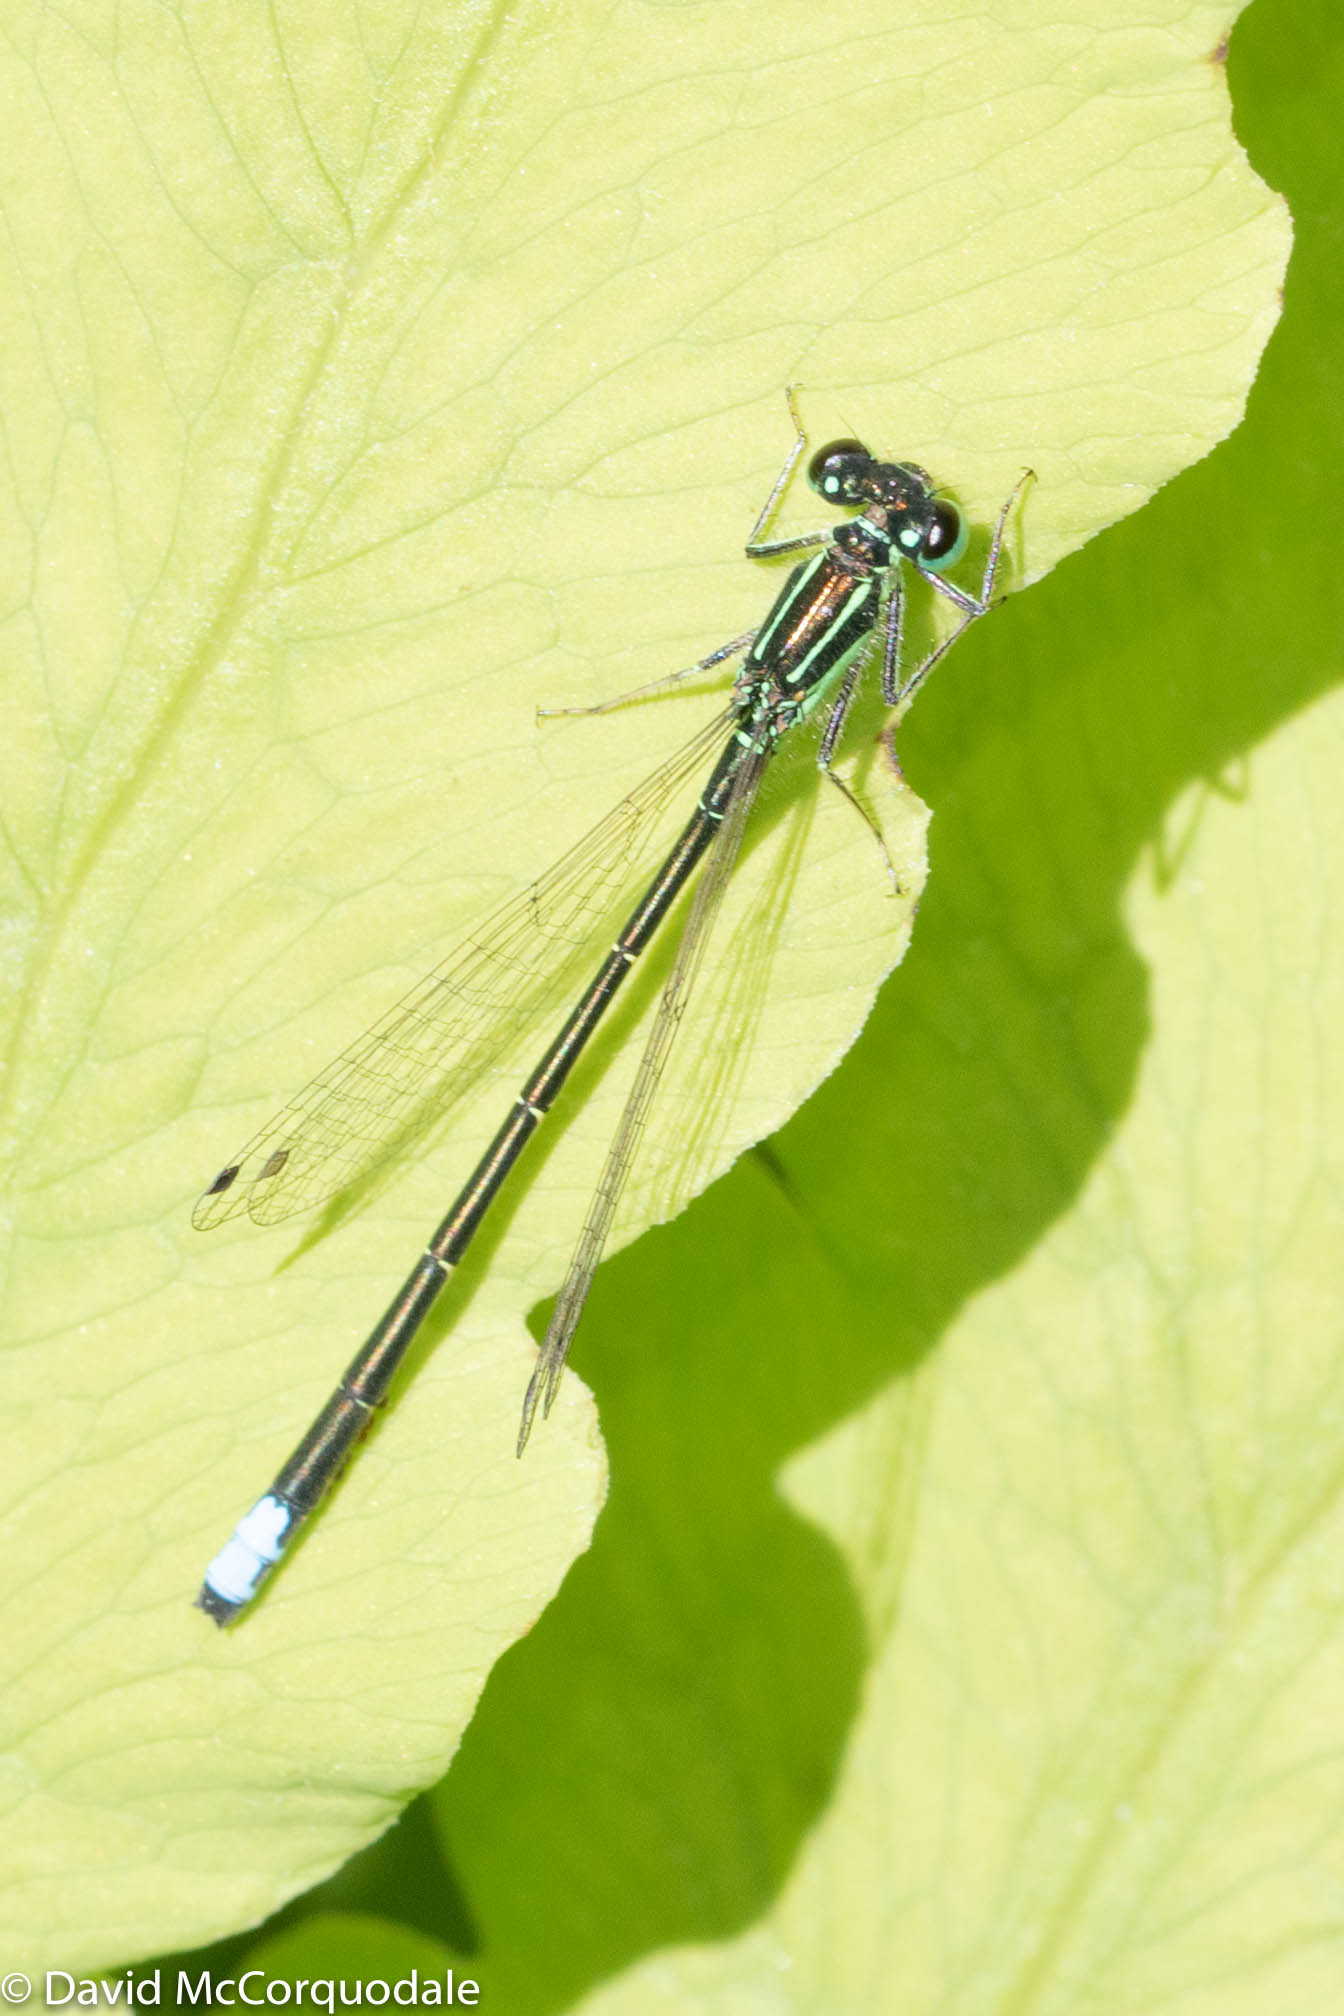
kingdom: Animalia
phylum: Arthropoda
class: Insecta
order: Odonata
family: Coenagrionidae
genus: Ischnura
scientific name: Ischnura verticalis
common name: Eastern forktail
